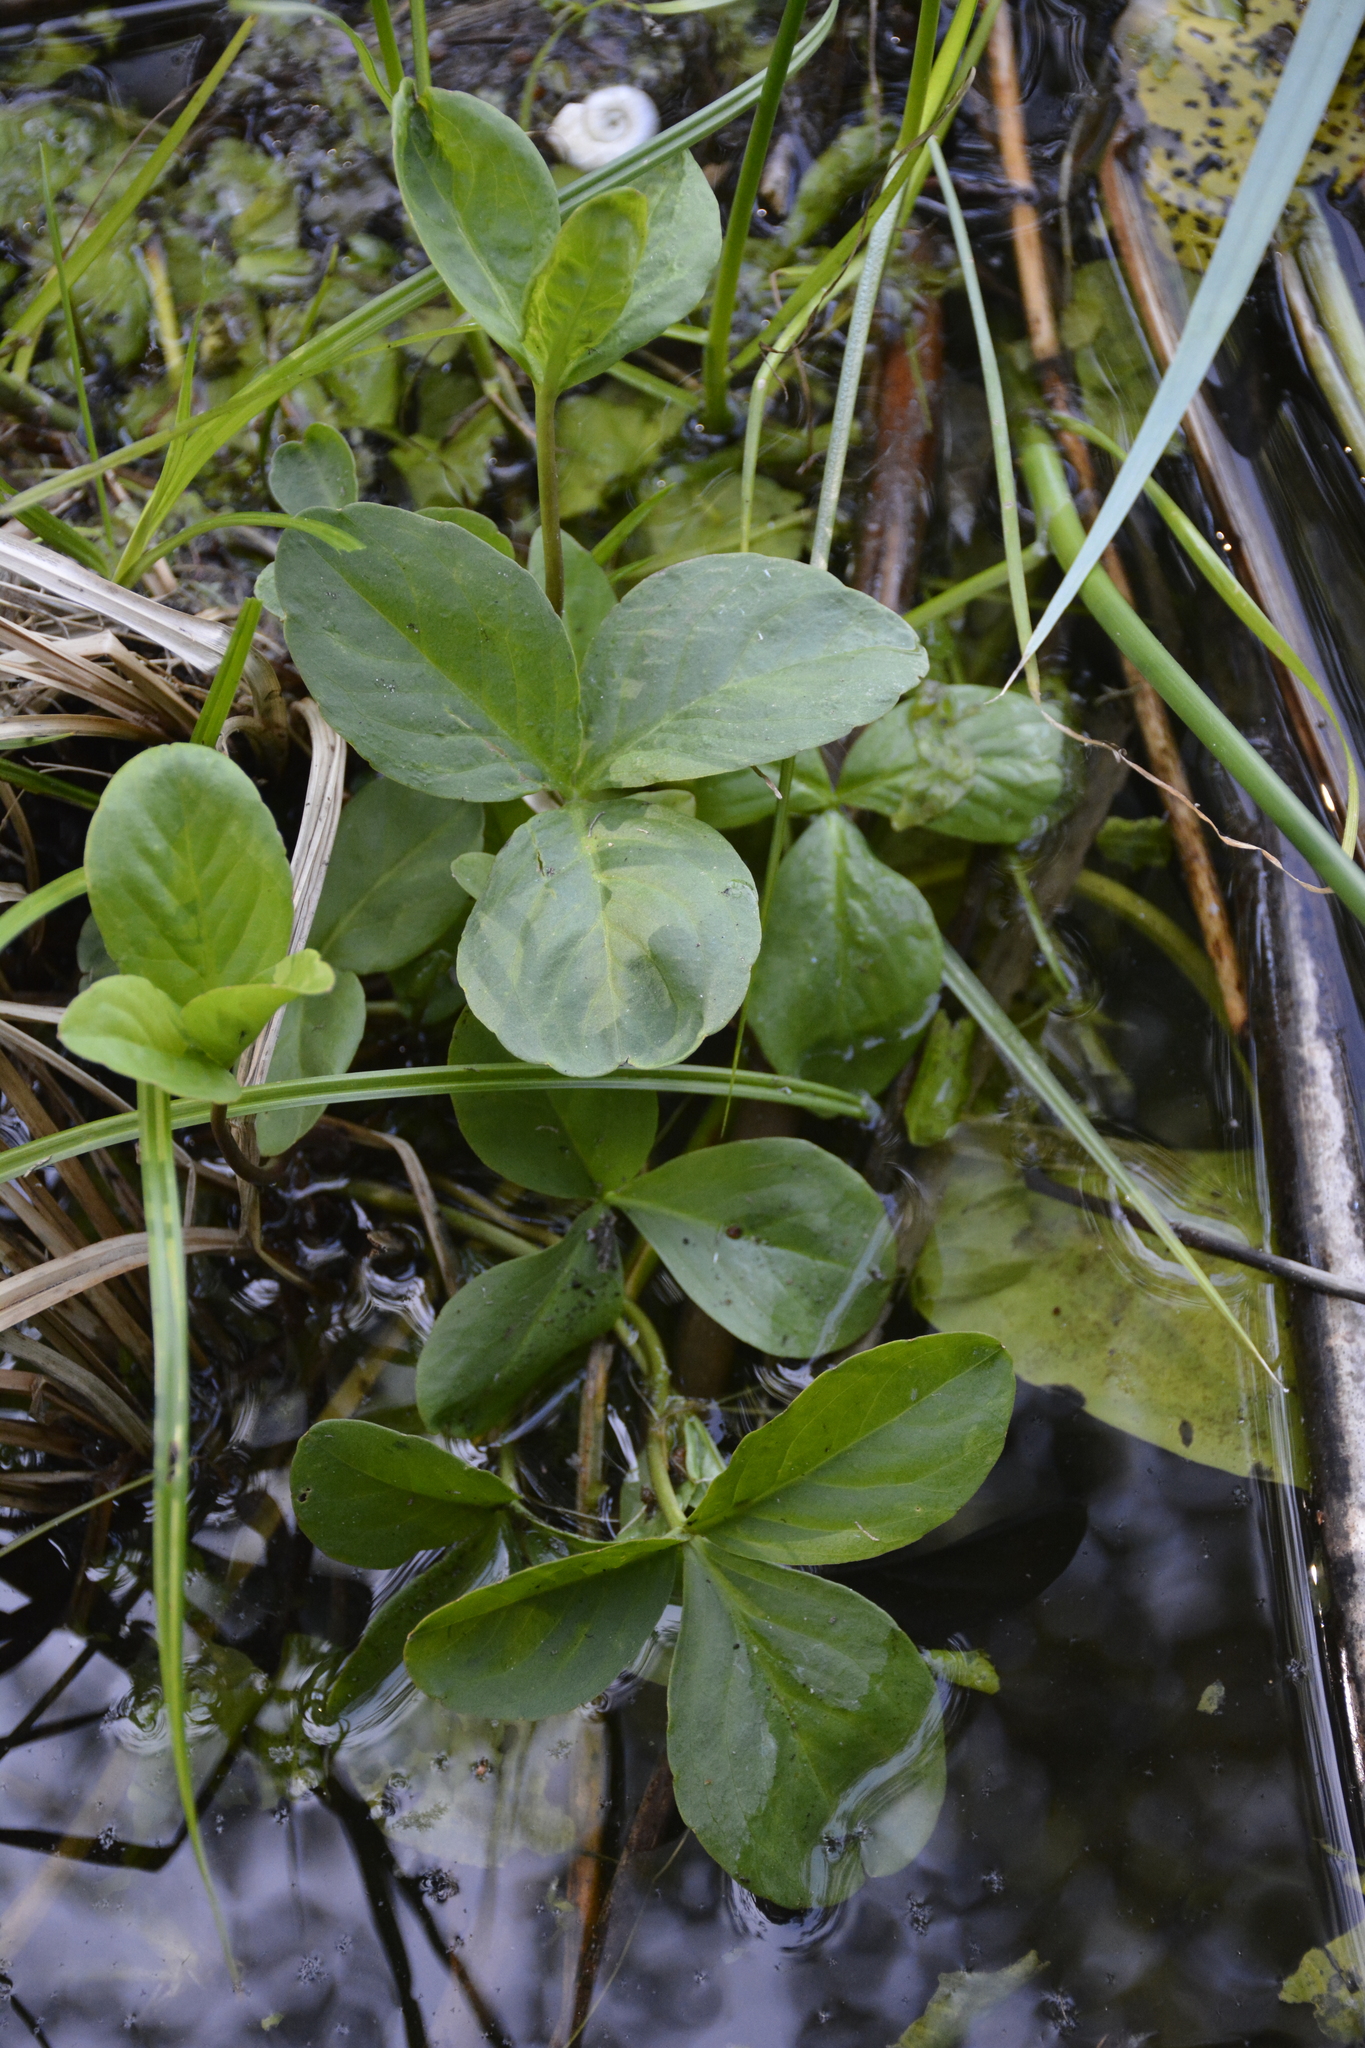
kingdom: Plantae
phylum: Tracheophyta
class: Magnoliopsida
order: Asterales
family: Menyanthaceae
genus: Menyanthes
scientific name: Menyanthes trifoliata
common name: Bogbean
